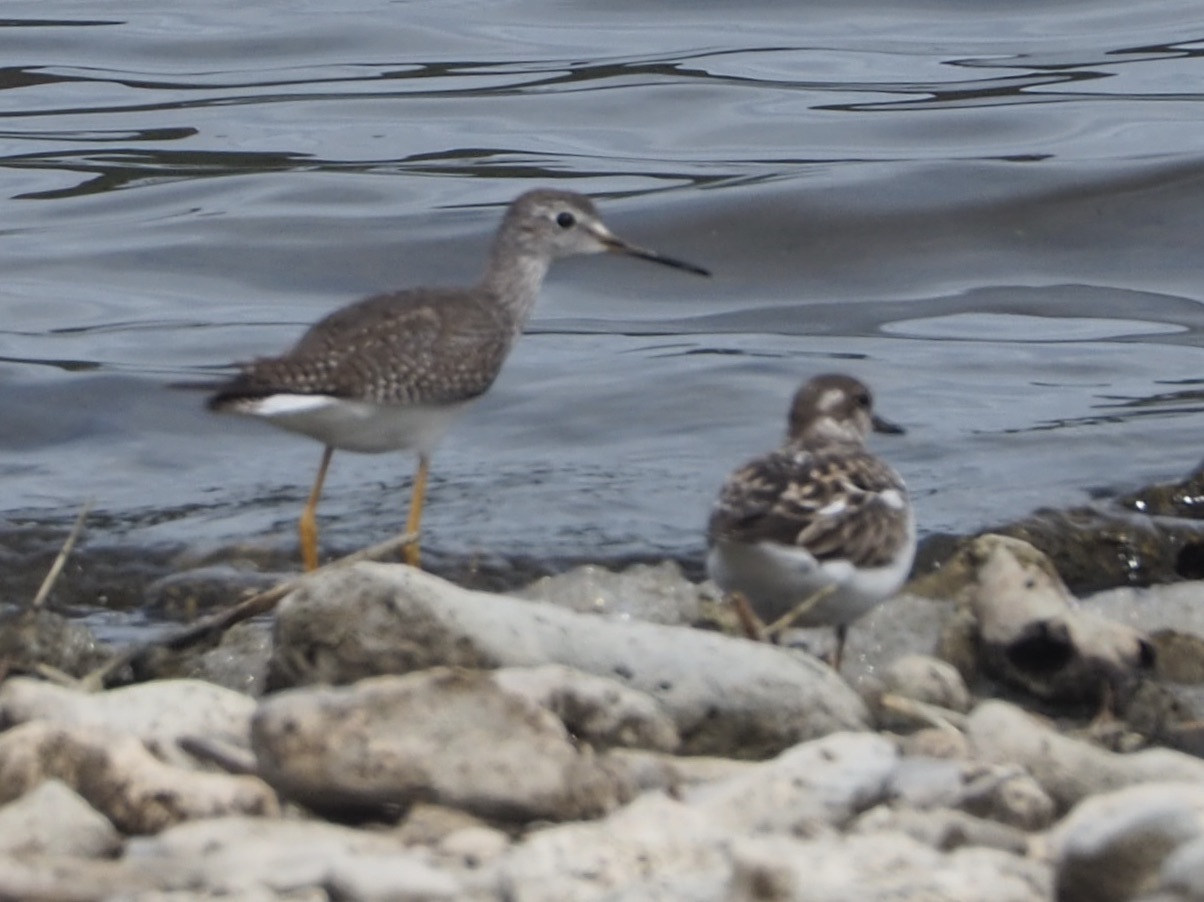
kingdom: Animalia
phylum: Chordata
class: Aves
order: Charadriiformes
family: Scolopacidae
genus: Tringa
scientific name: Tringa flavipes
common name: Lesser yellowlegs
